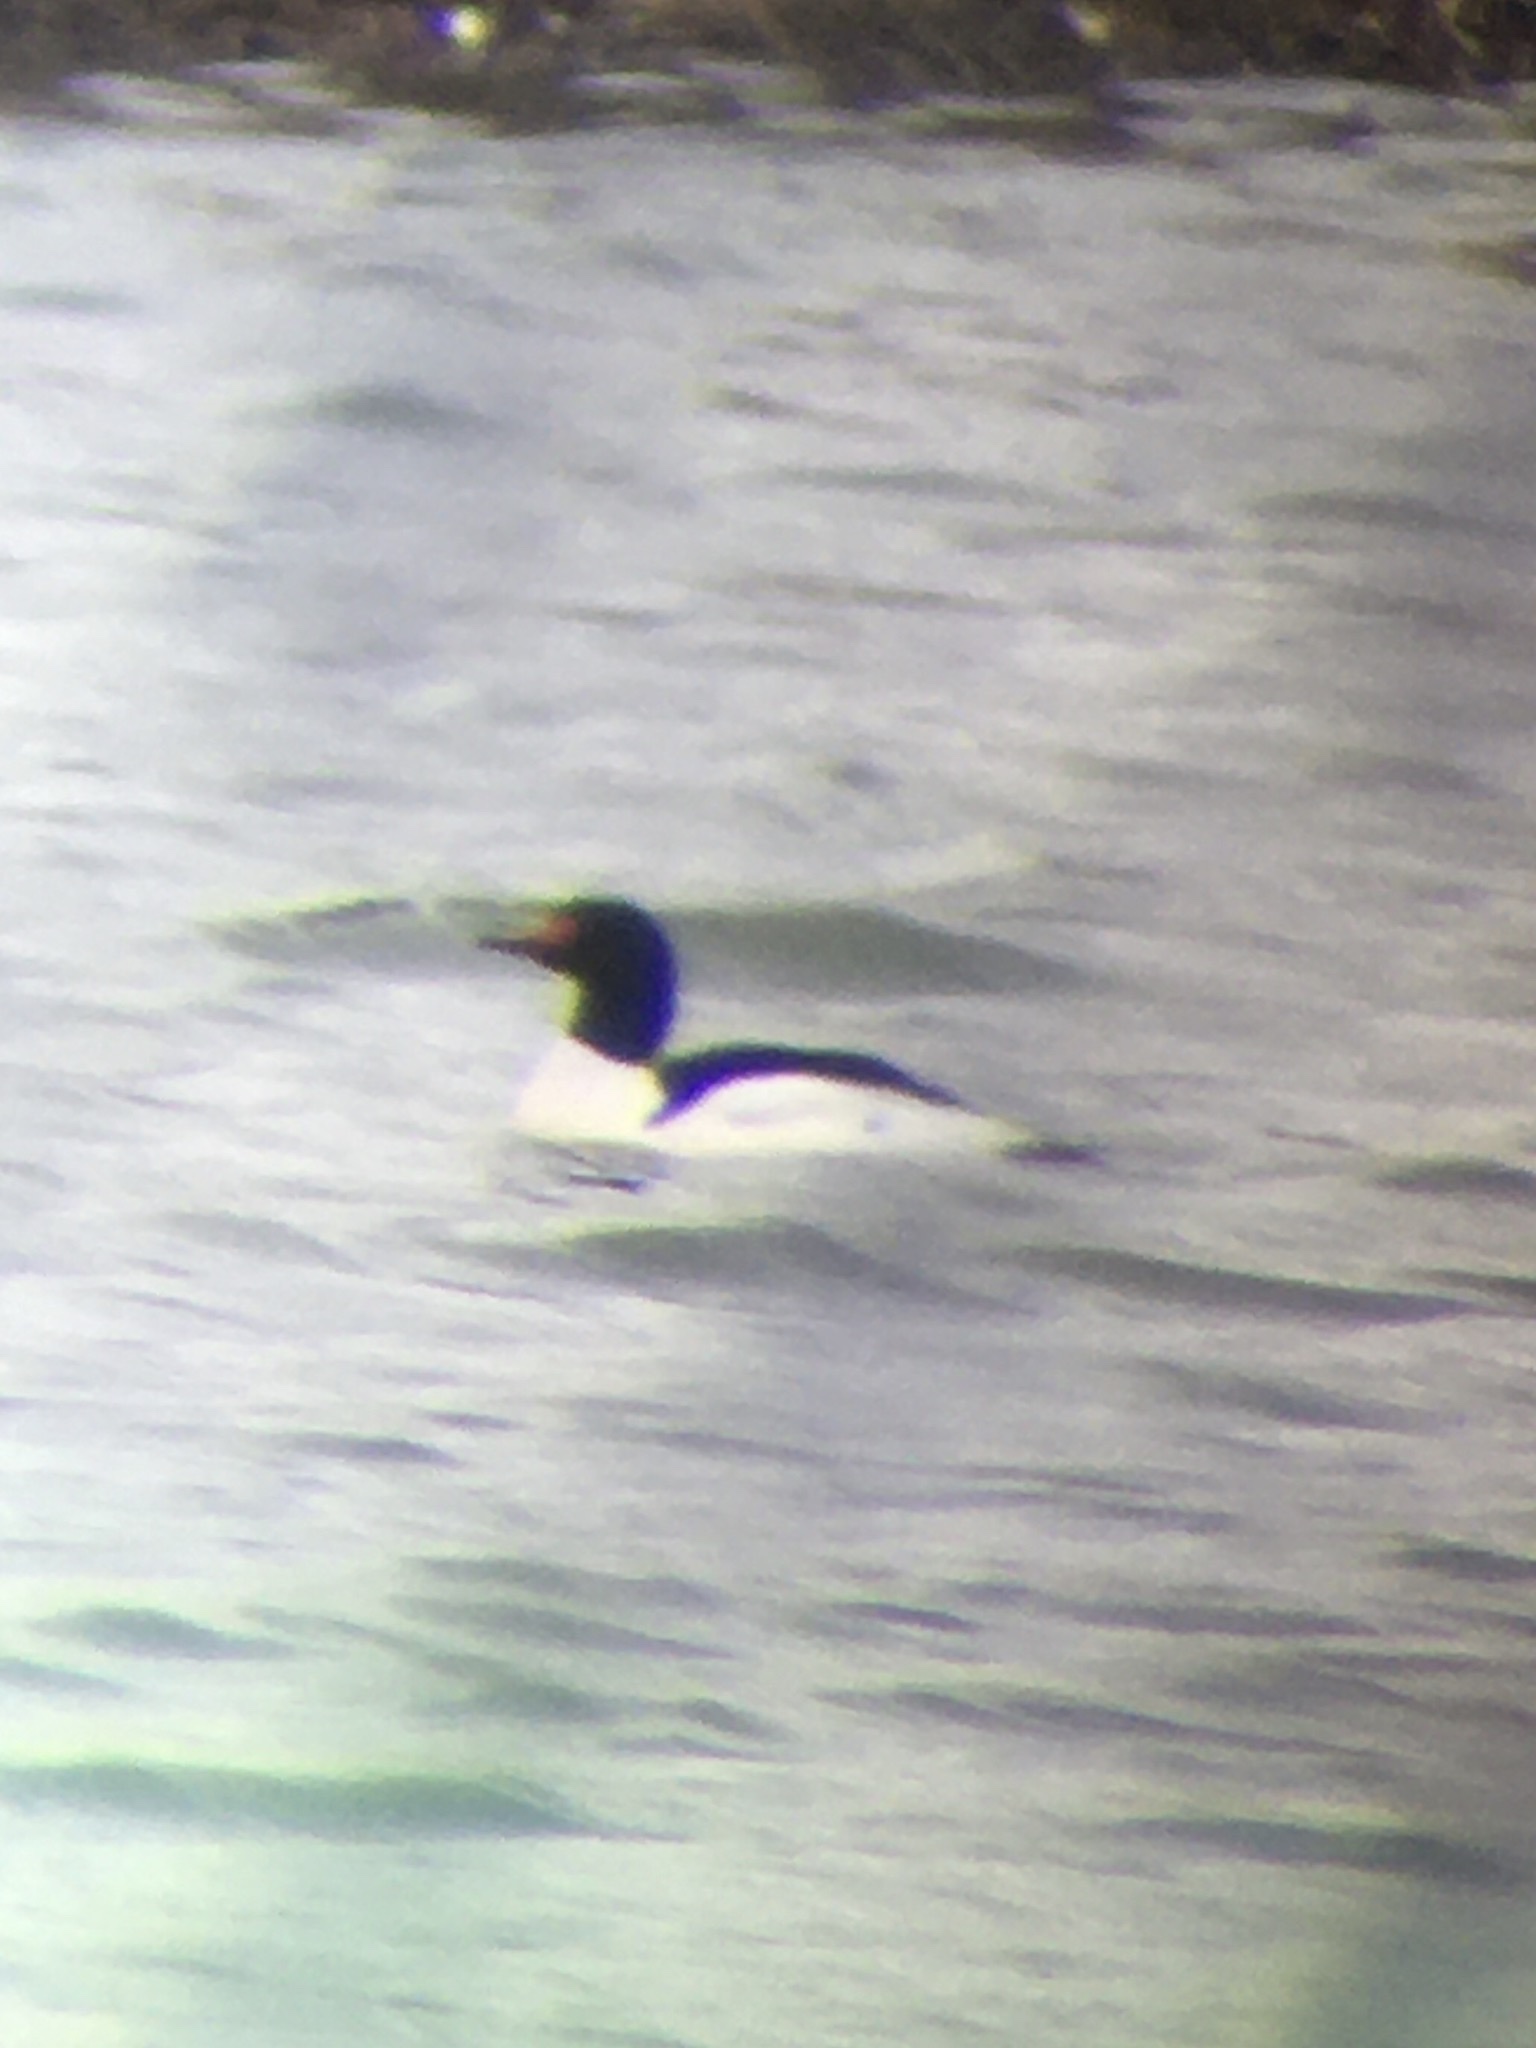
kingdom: Animalia
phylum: Chordata
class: Aves
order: Anseriformes
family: Anatidae
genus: Mergus
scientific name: Mergus merganser
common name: Common merganser
